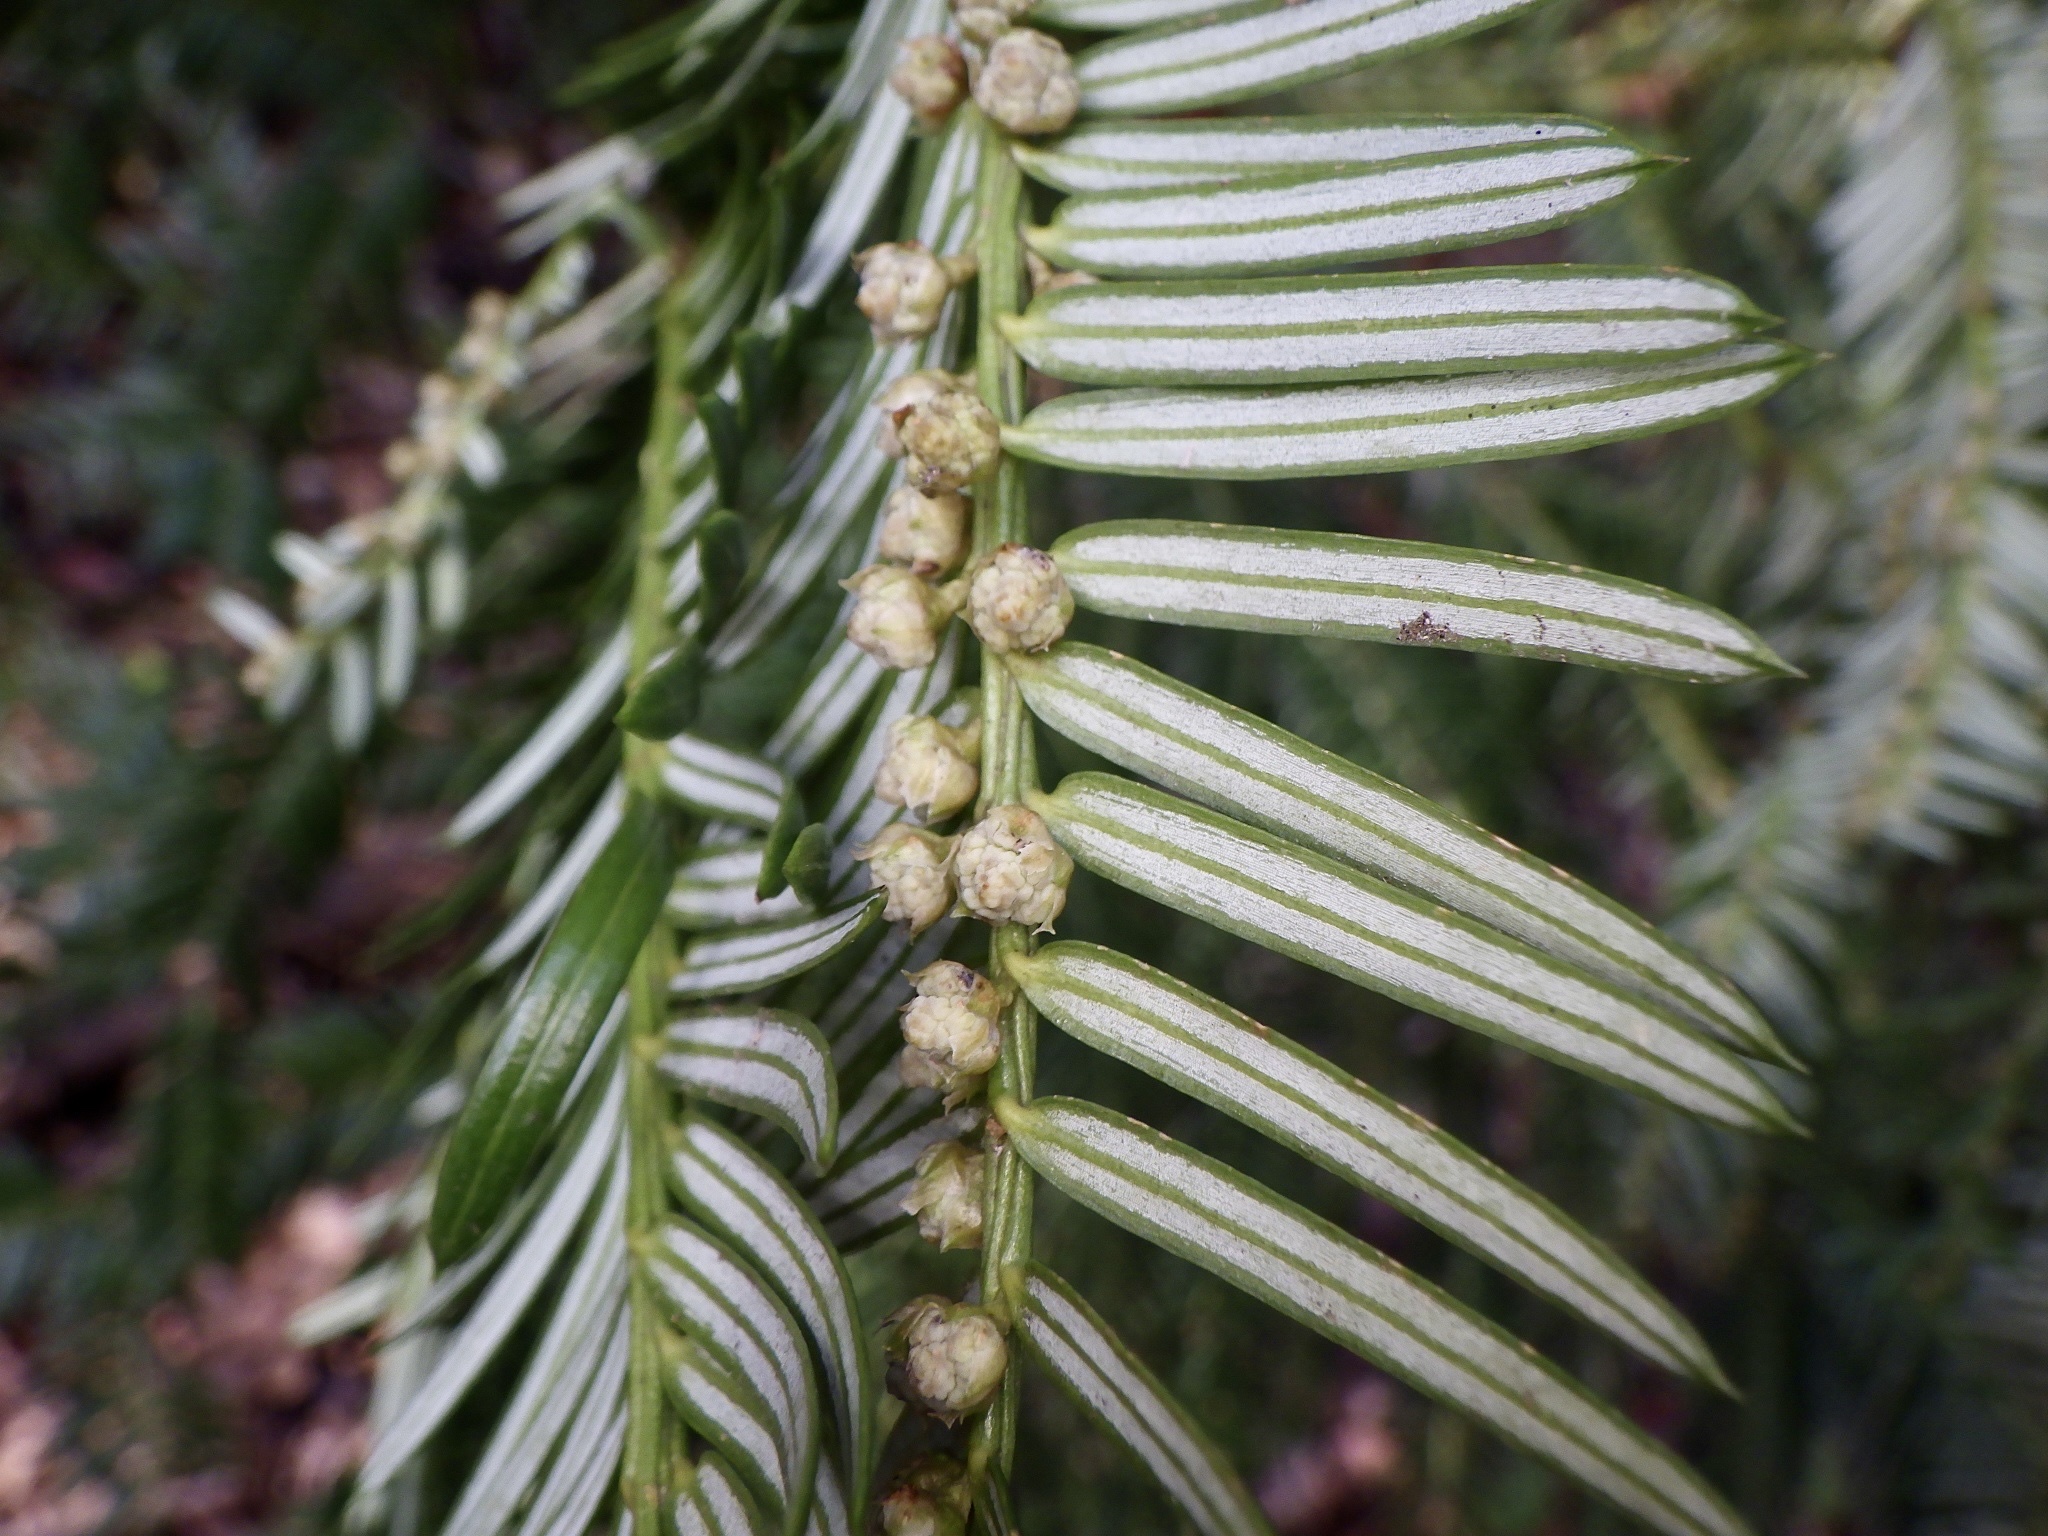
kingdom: Plantae
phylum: Tracheophyta
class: Pinopsida
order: Pinales
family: Cephalotaxaceae
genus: Cephalotaxus
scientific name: Cephalotaxus harringtonii
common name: Harrington's plum yew
